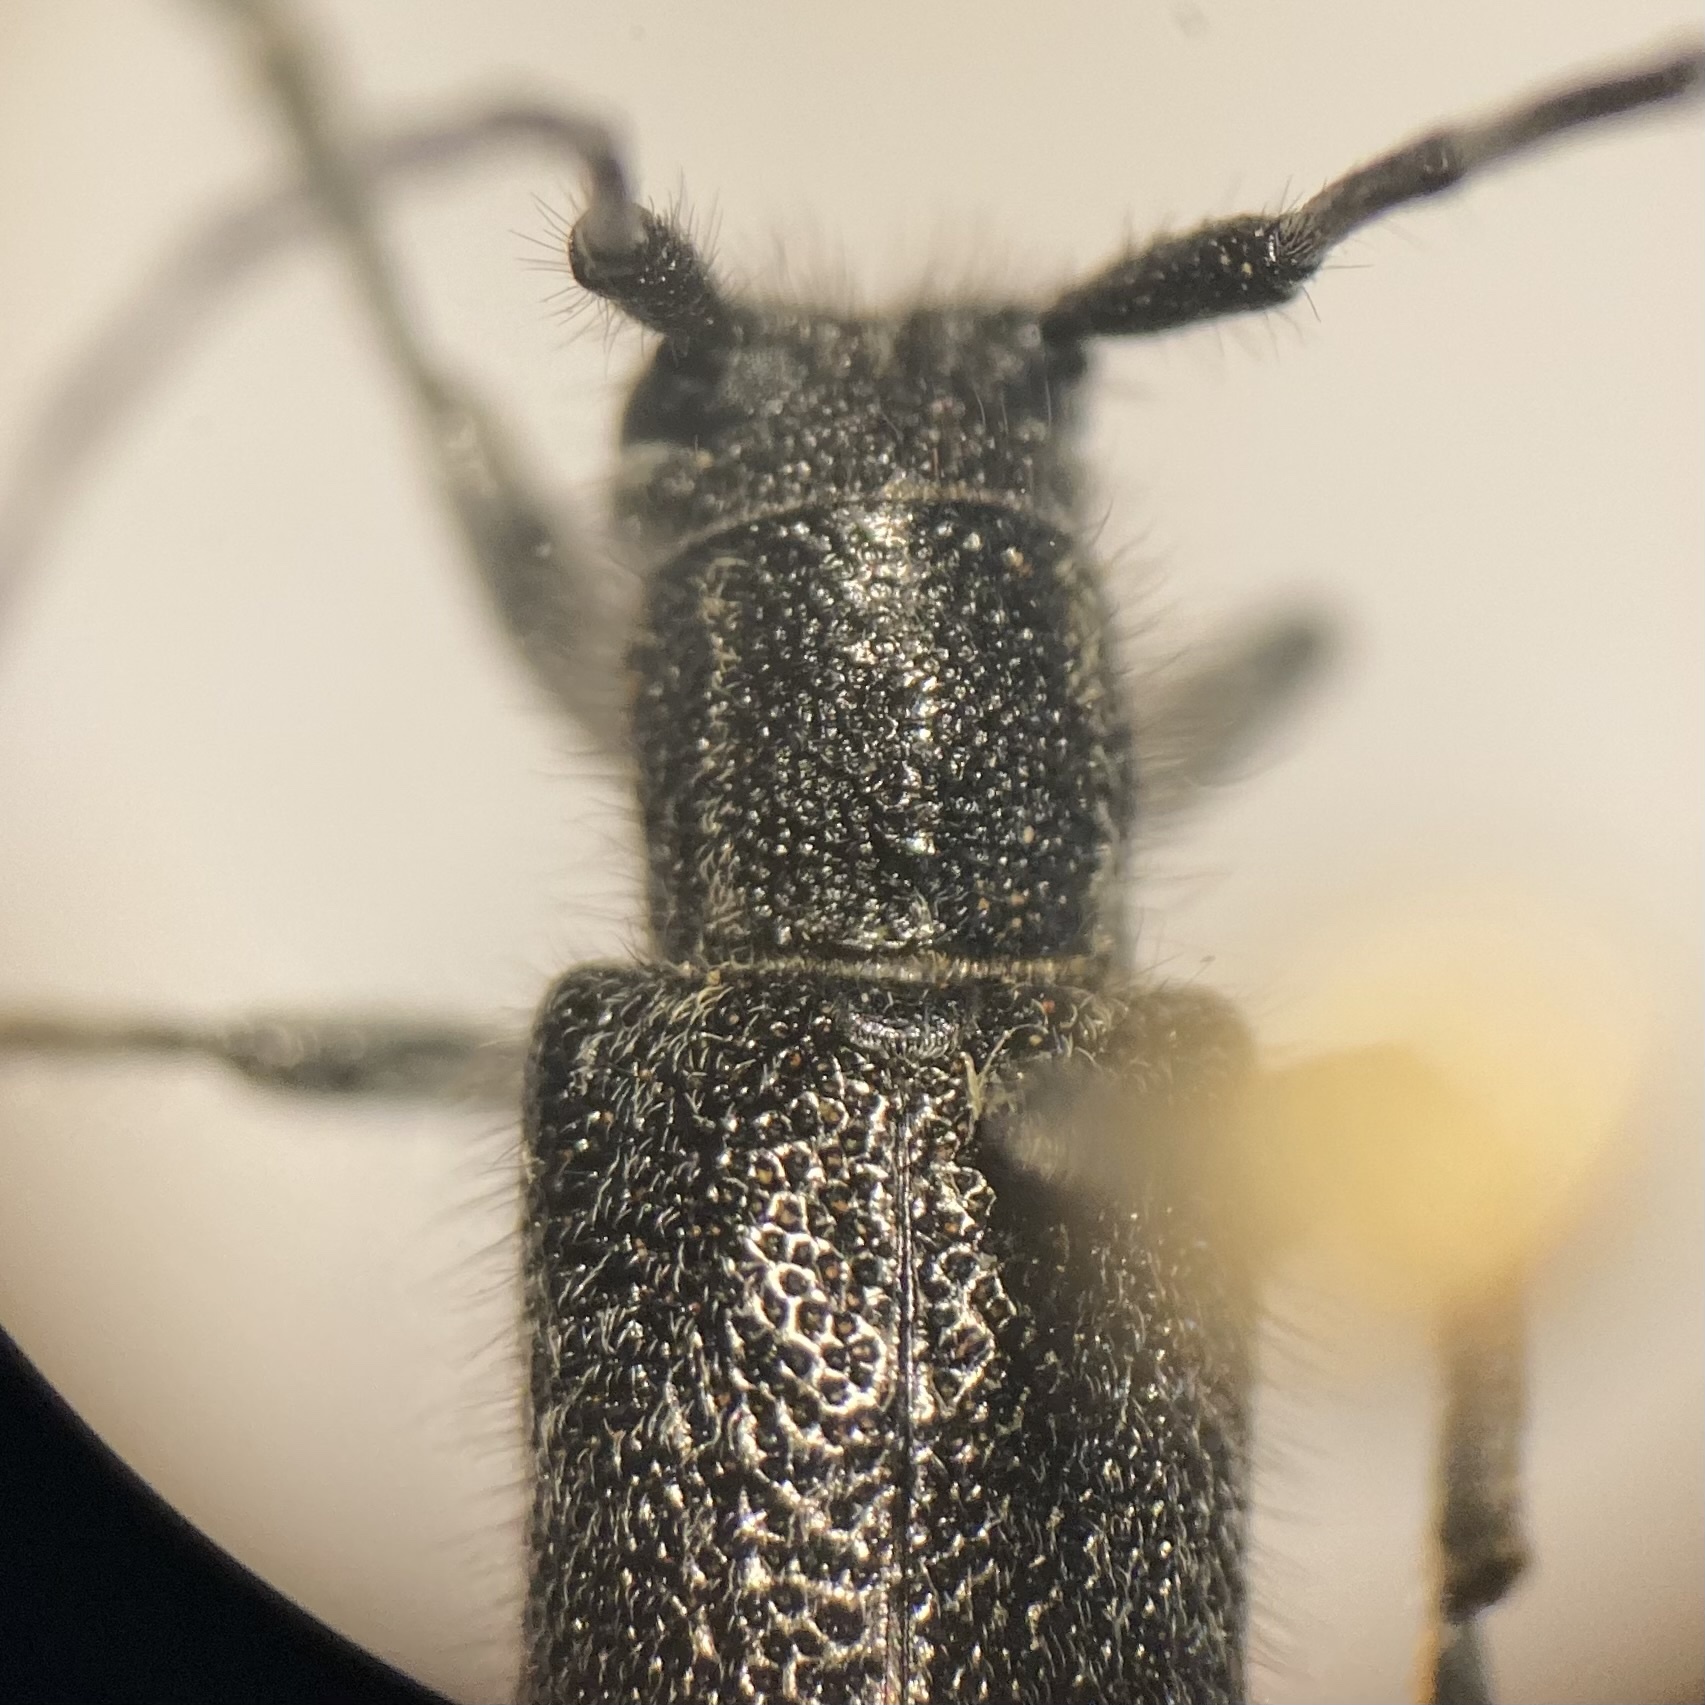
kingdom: Animalia
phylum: Arthropoda
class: Insecta
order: Coleoptera
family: Cerambycidae
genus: Saperda
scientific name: Saperda moesta
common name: Long-horned beetle
